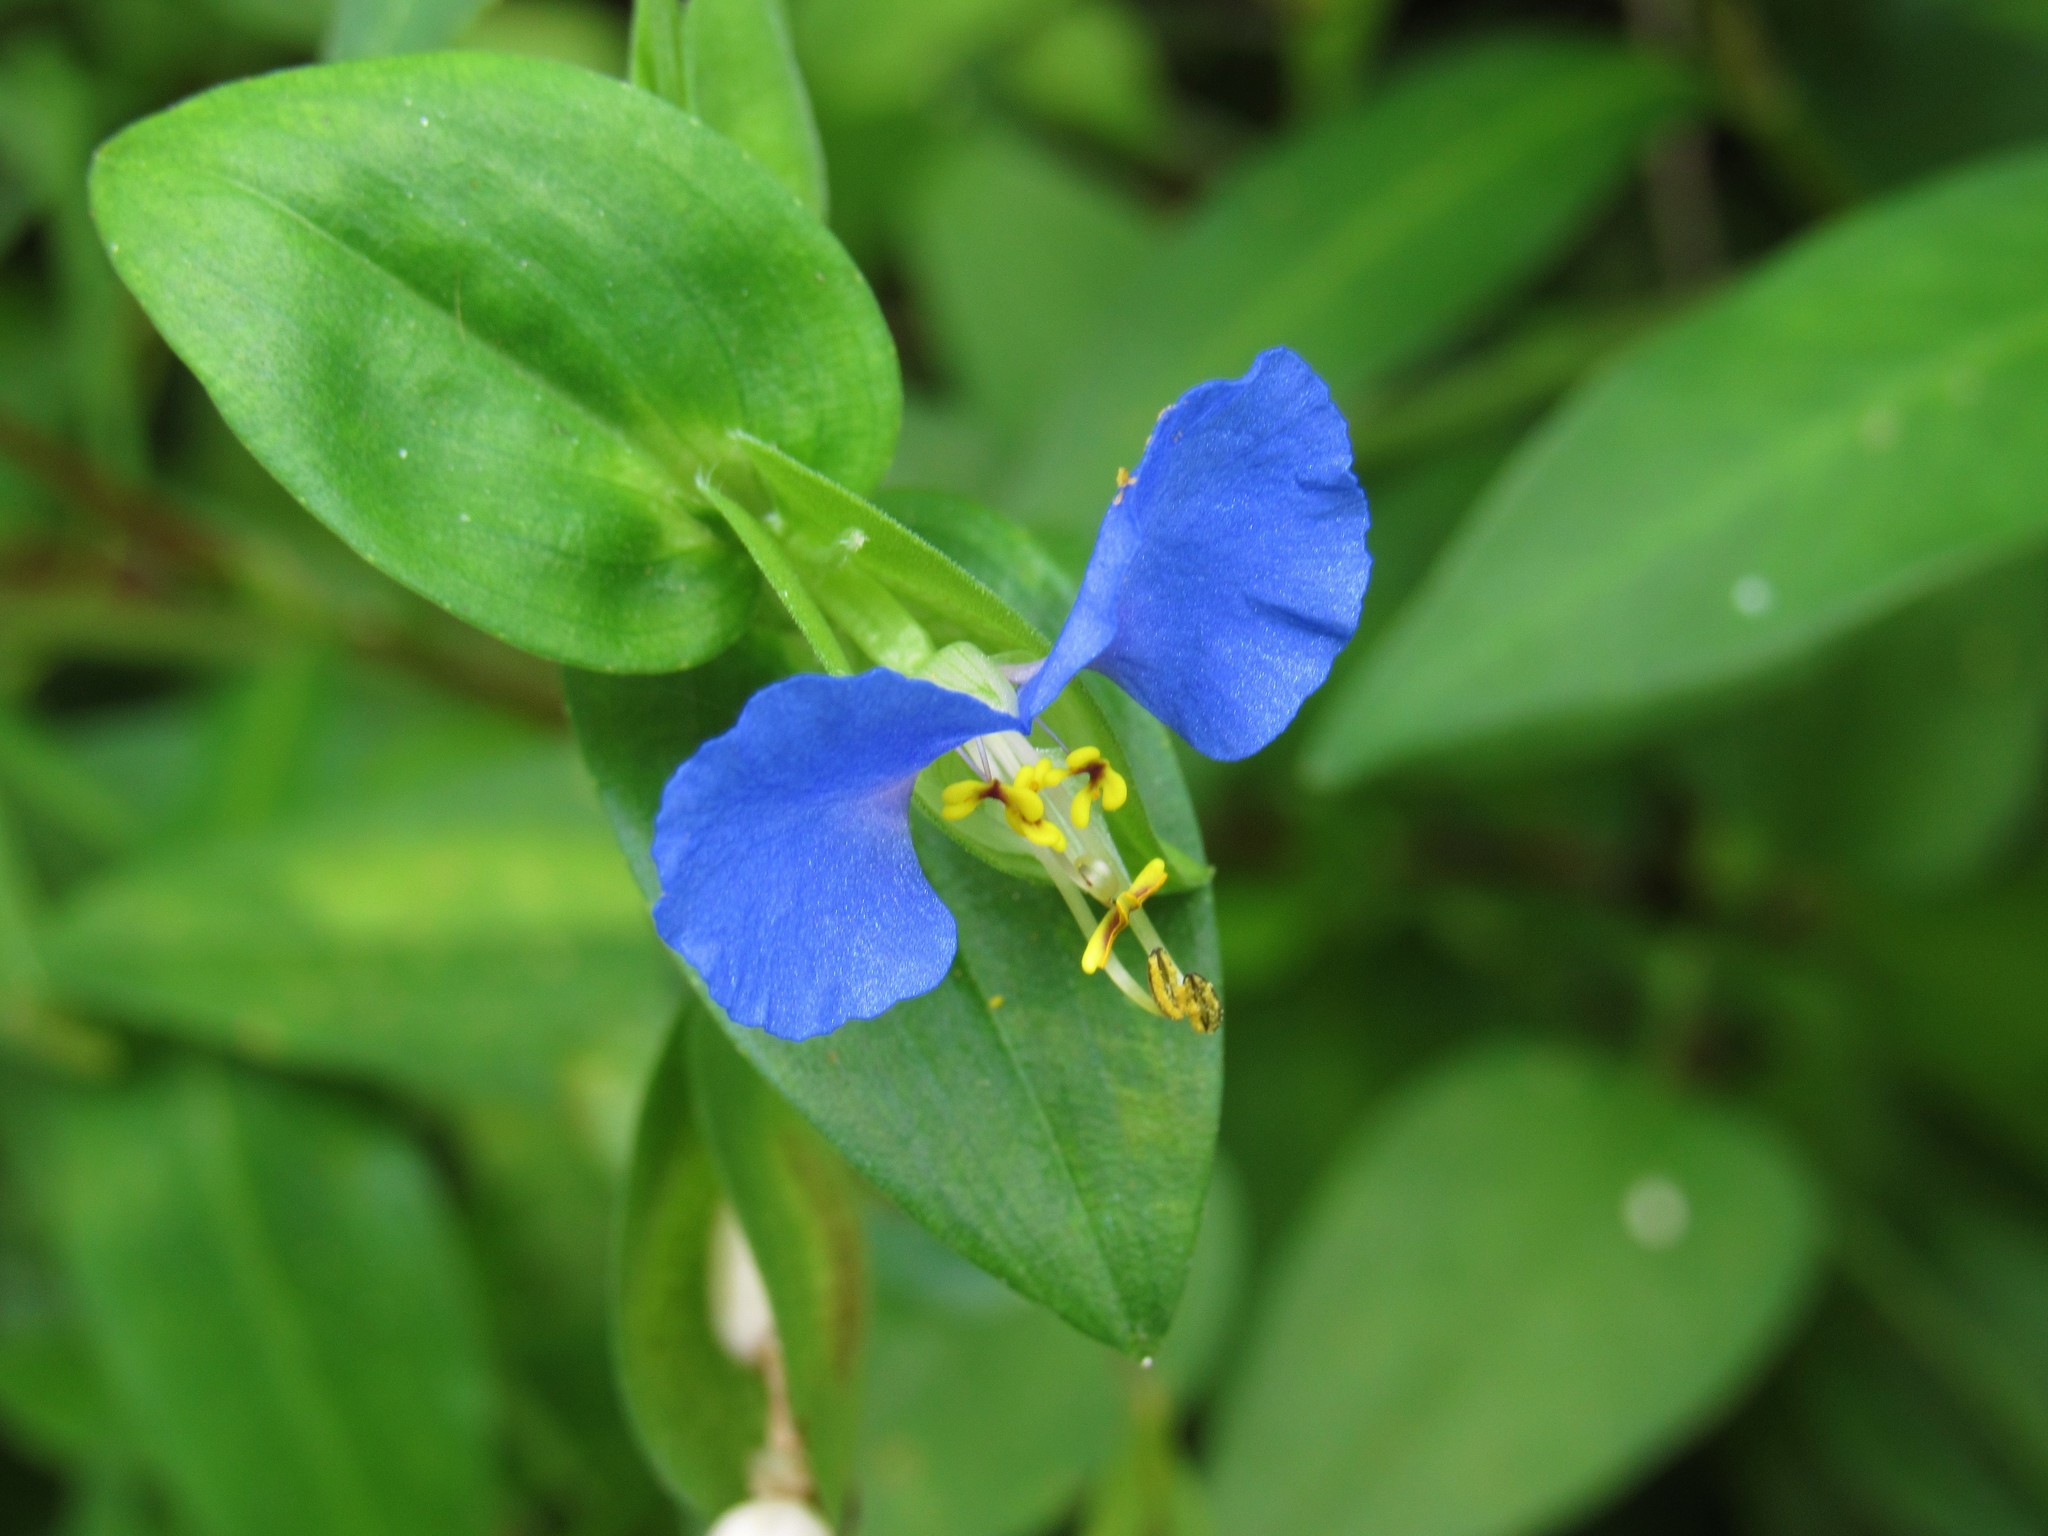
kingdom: Plantae
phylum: Tracheophyta
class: Liliopsida
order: Commelinales
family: Commelinaceae
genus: Commelina
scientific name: Commelina communis
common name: Asiatic dayflower
